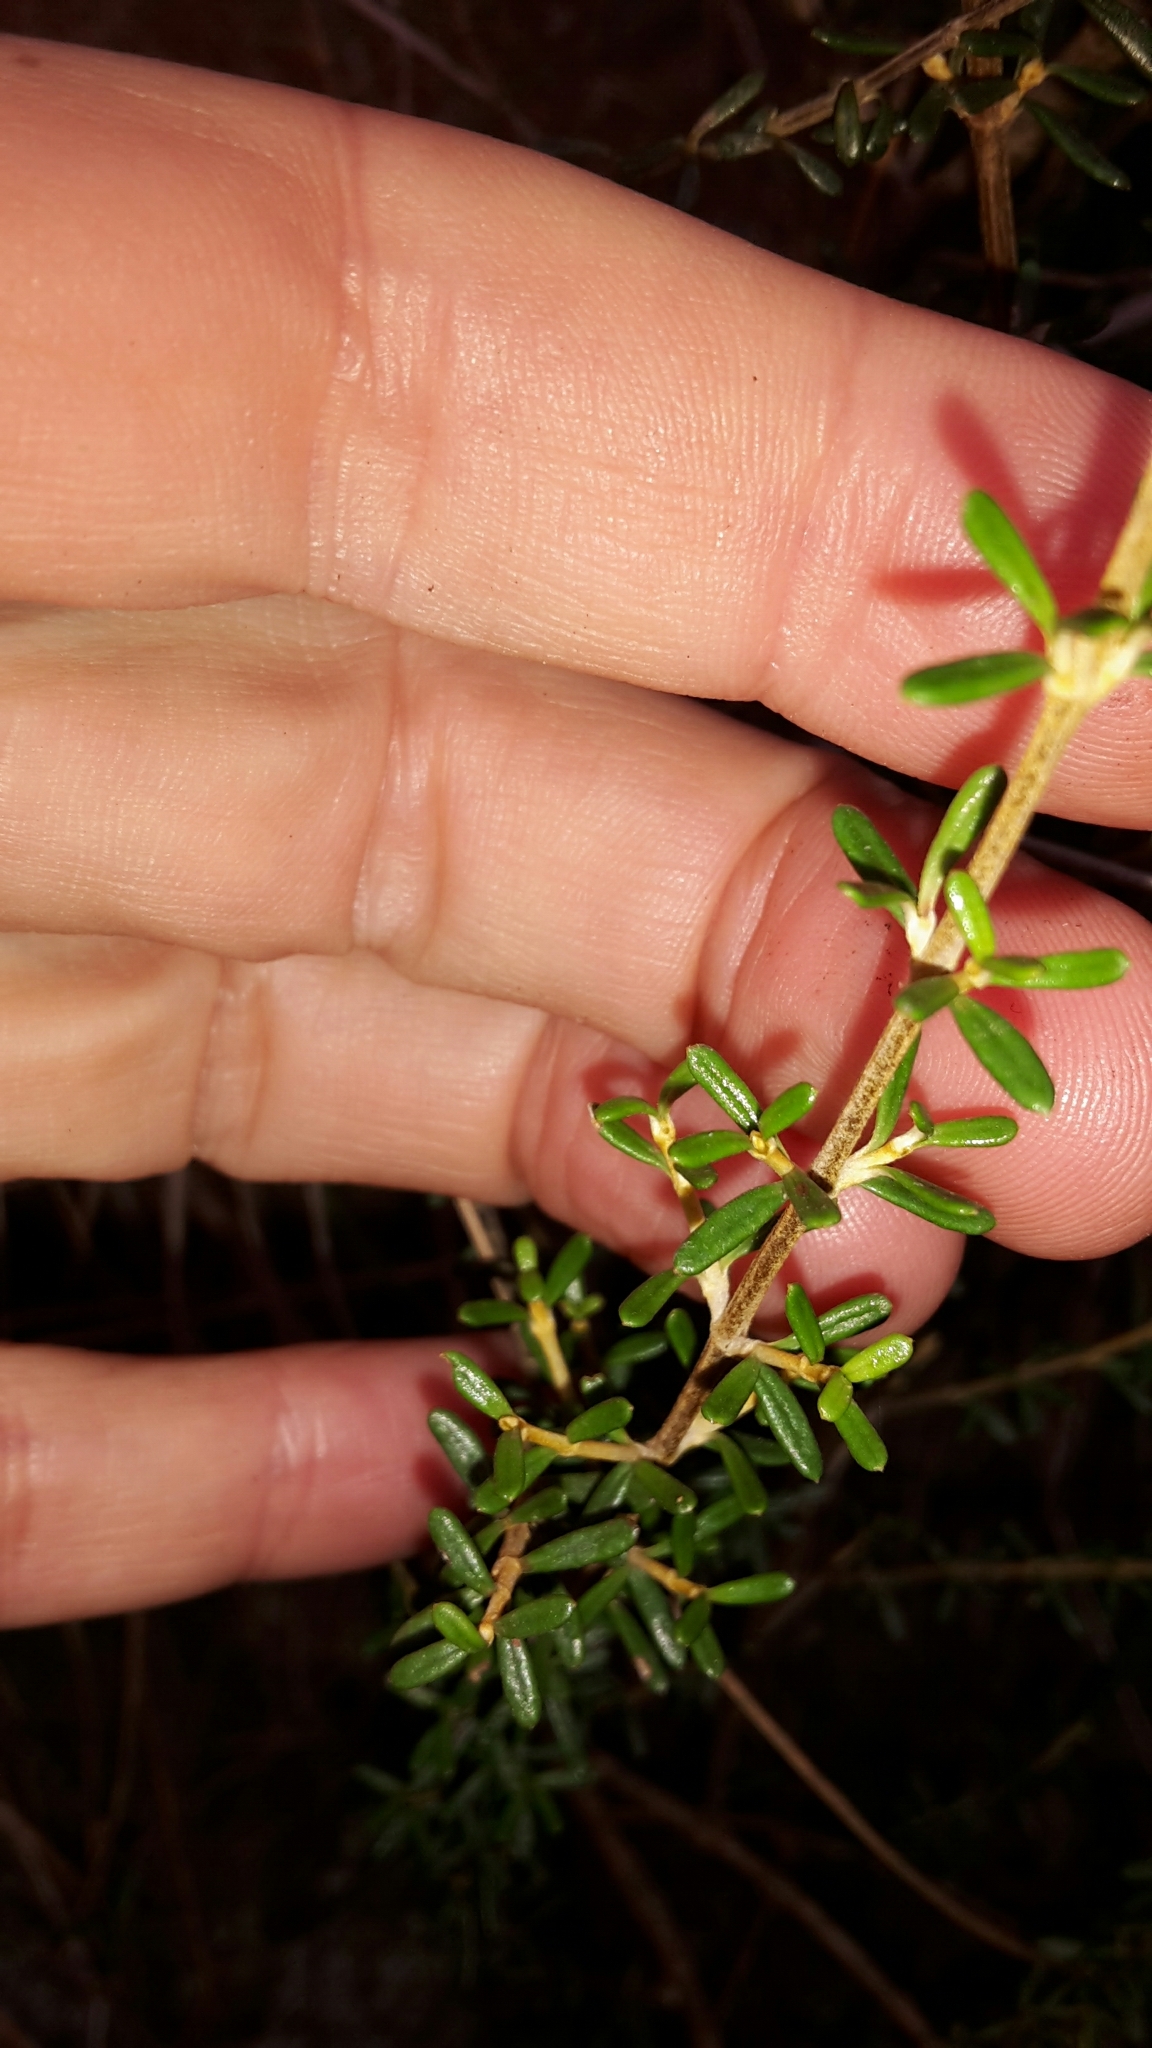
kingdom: Plantae
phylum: Tracheophyta
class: Magnoliopsida
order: Asterales
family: Asteraceae
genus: Olearia
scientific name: Olearia solandri
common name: Coastal daisybush
